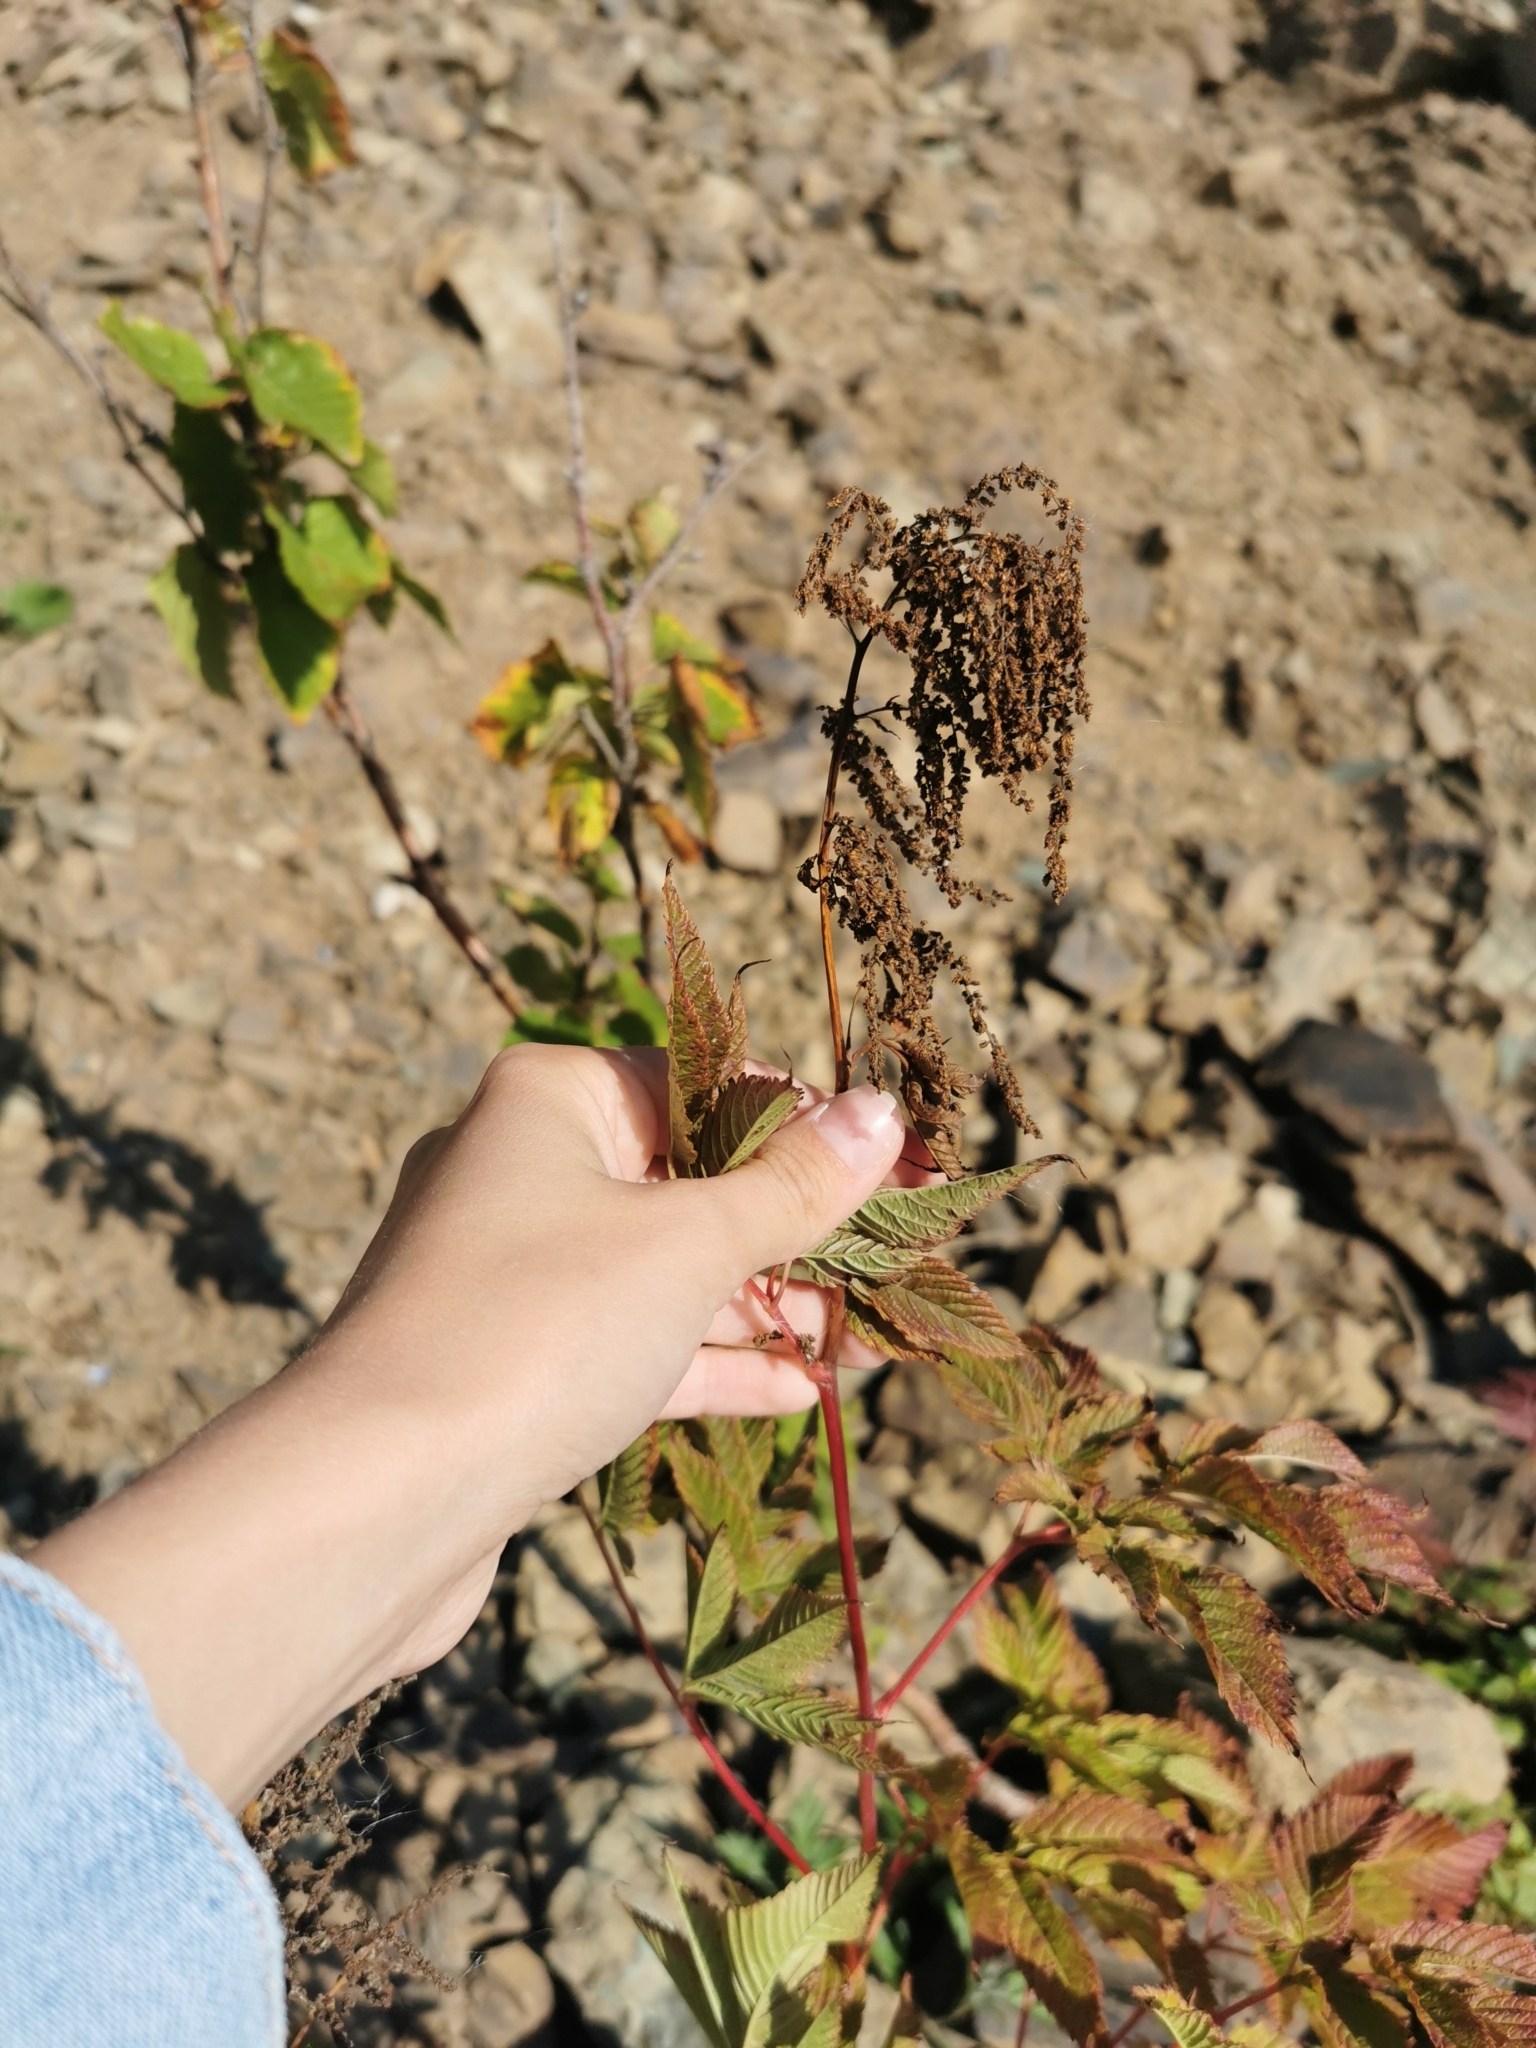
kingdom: Plantae
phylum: Tracheophyta
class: Magnoliopsida
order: Rosales
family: Rosaceae
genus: Aruncus
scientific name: Aruncus dioicus
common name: Buck's-beard
